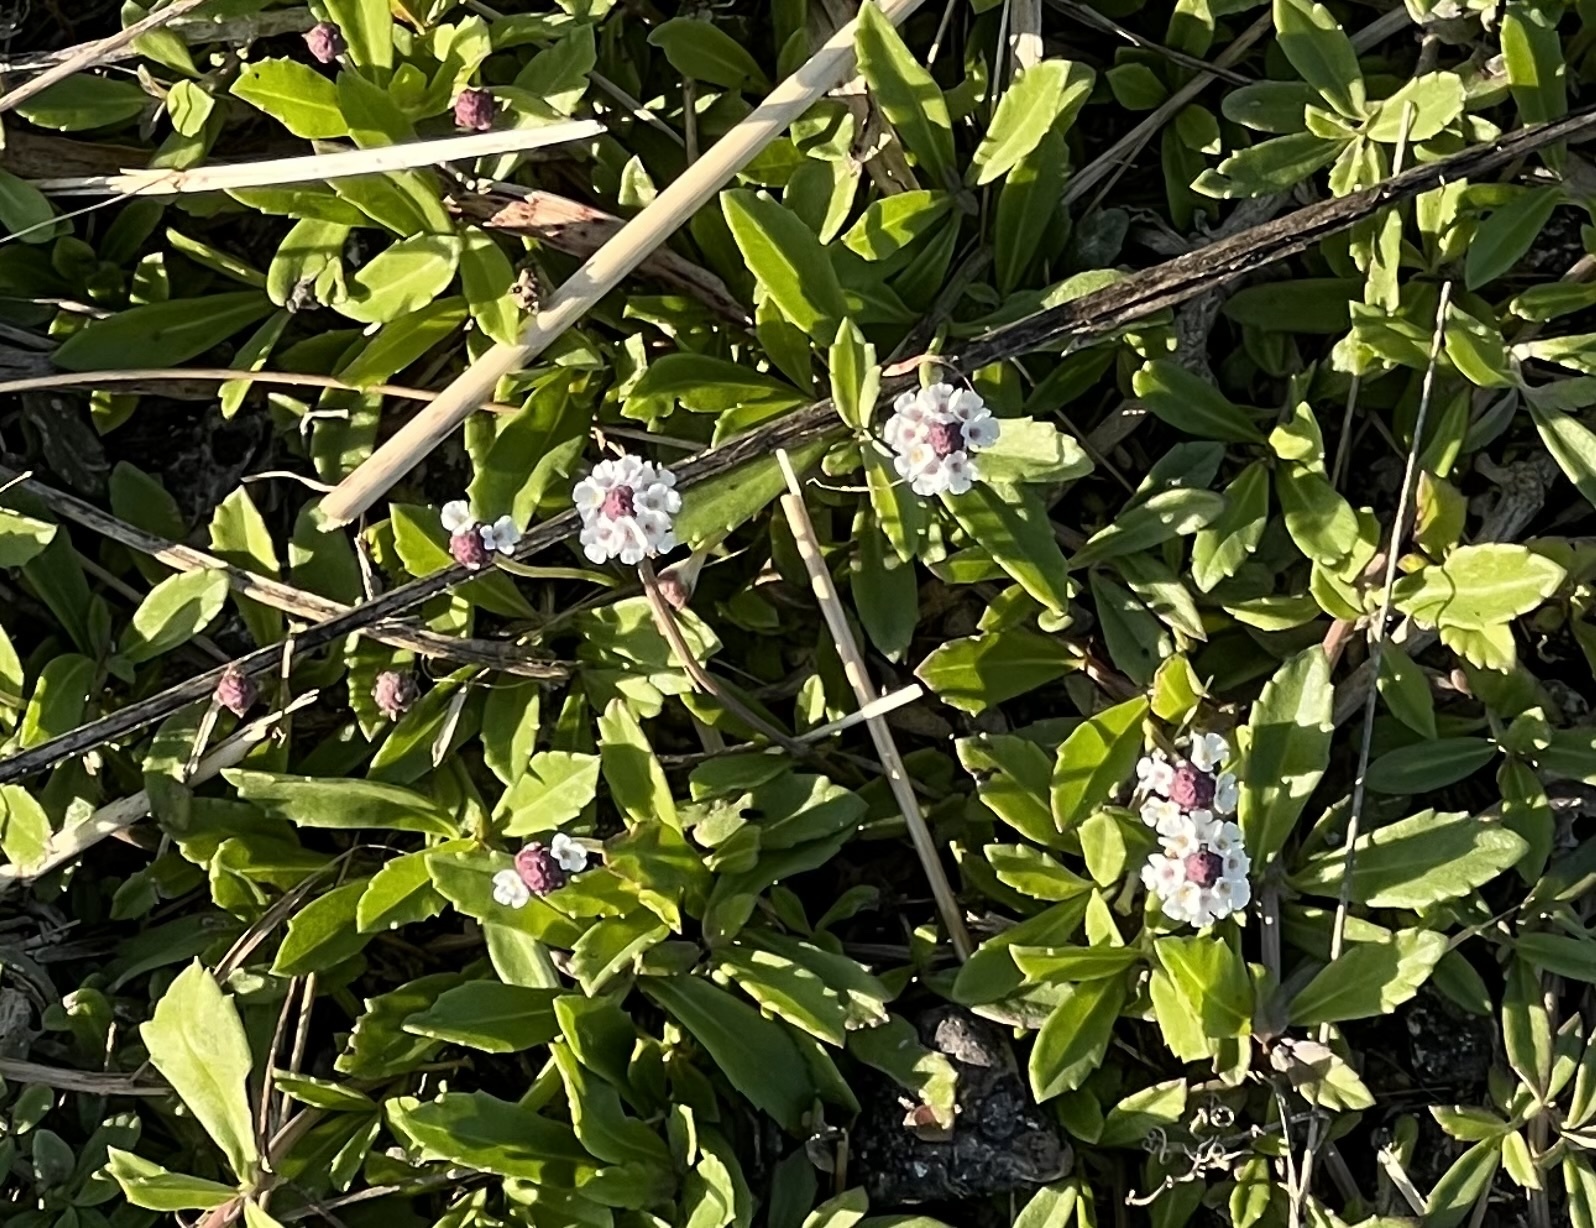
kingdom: Plantae
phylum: Tracheophyta
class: Magnoliopsida
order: Lamiales
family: Verbenaceae
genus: Phyla
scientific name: Phyla nodiflora
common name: Frogfruit
